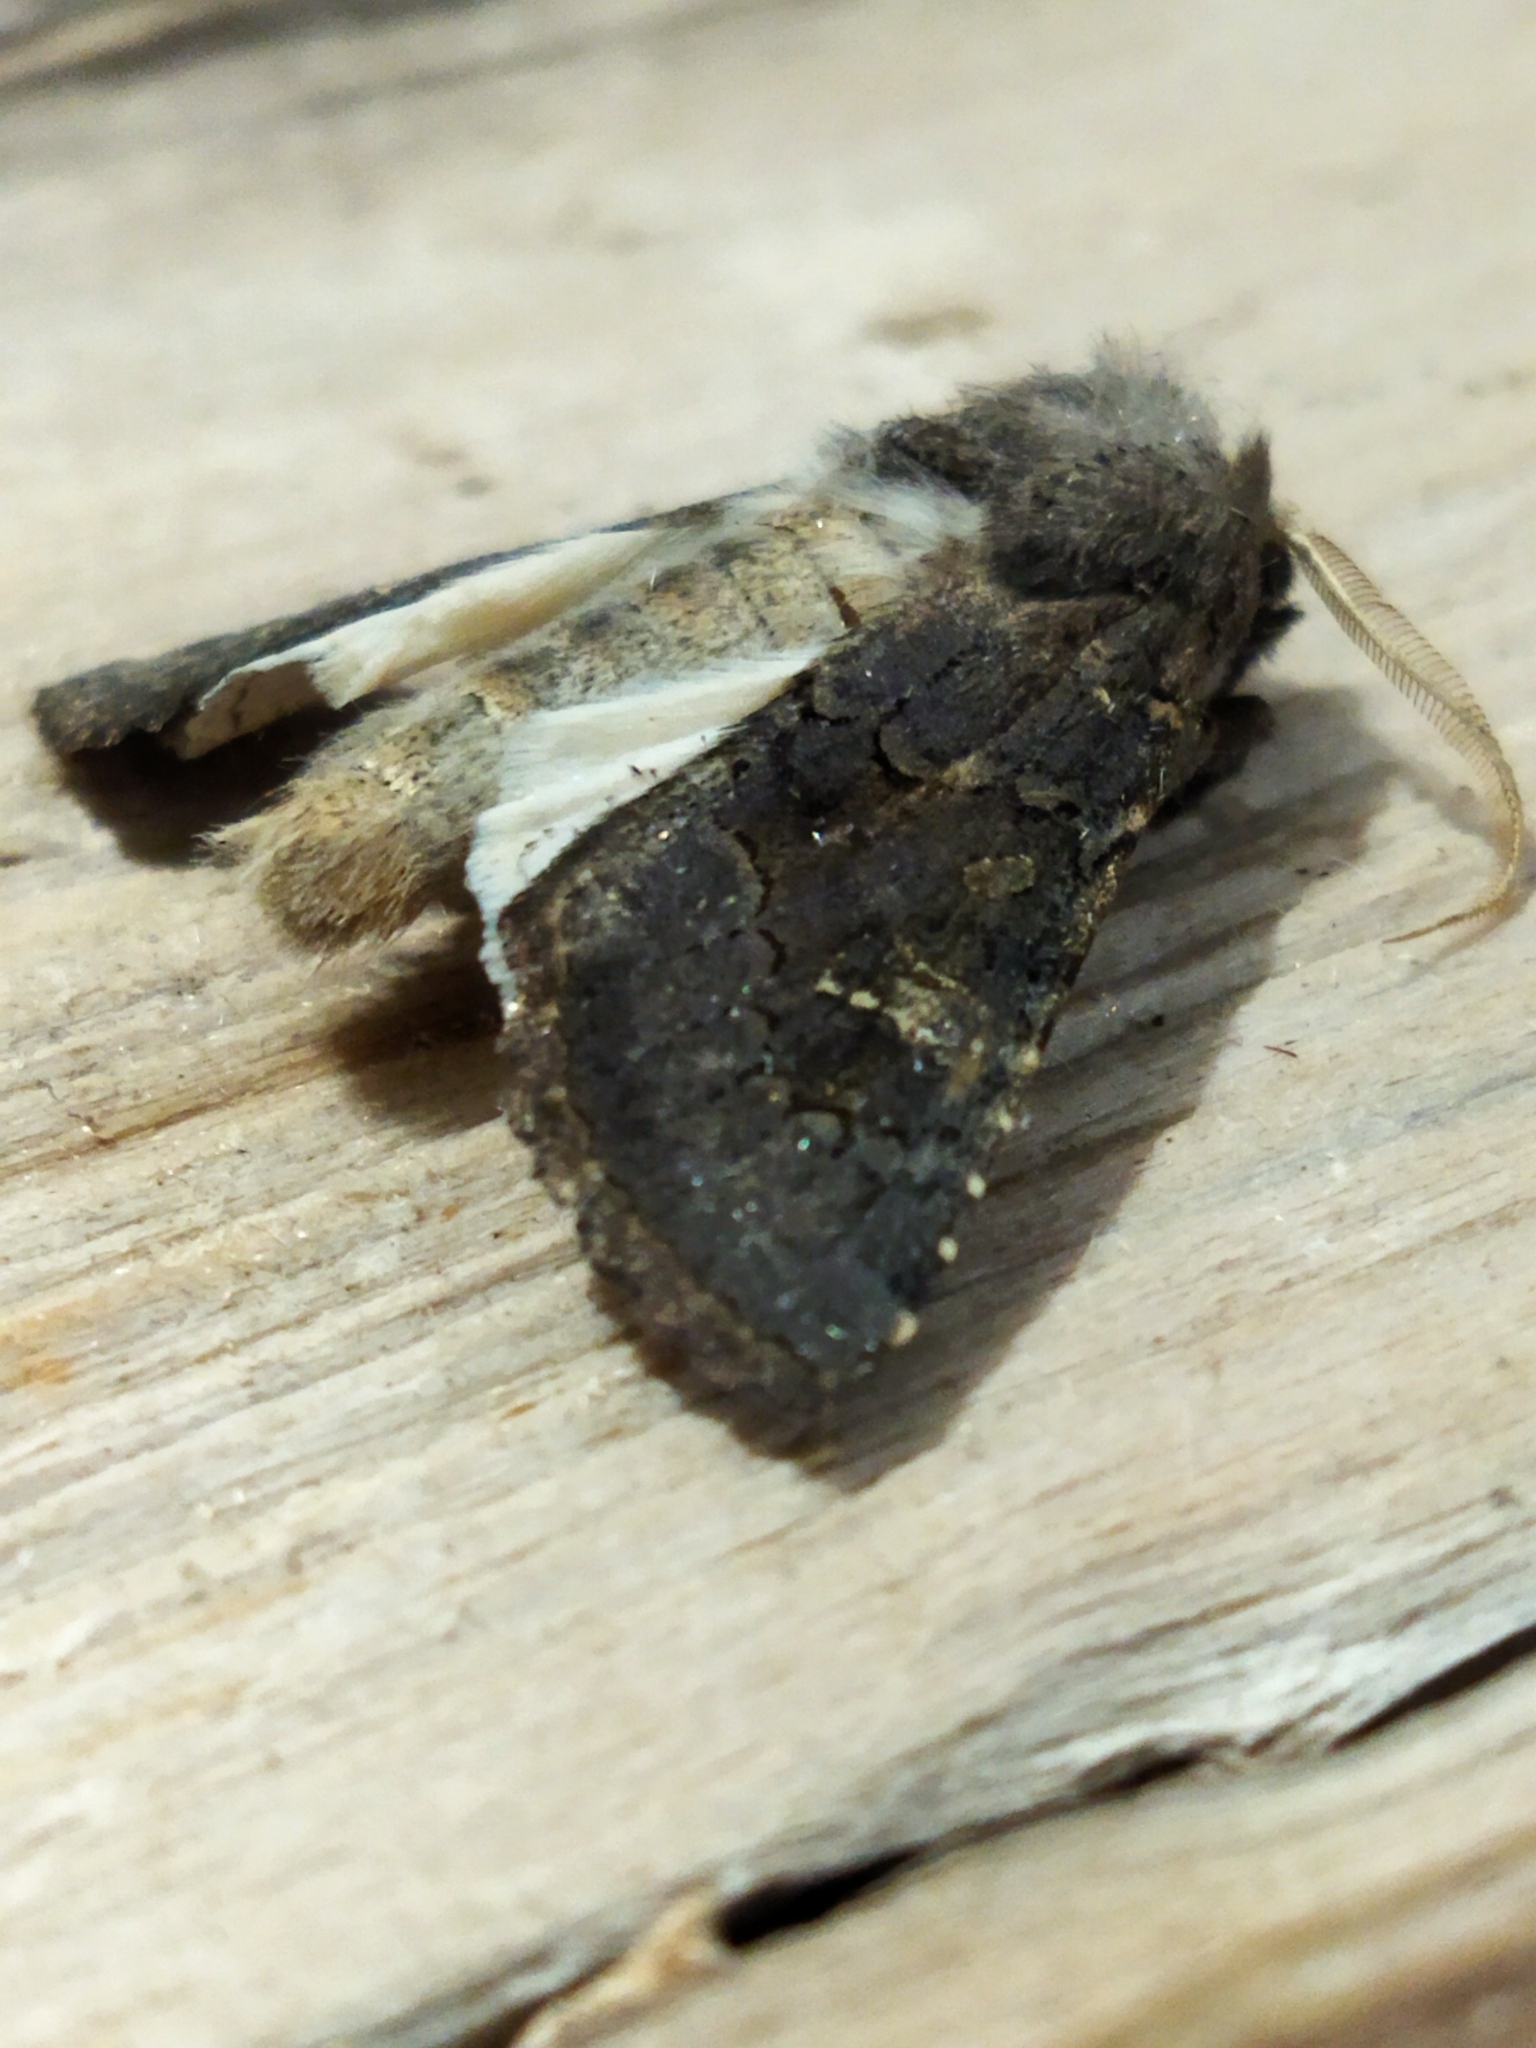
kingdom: Animalia
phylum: Arthropoda
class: Insecta
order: Lepidoptera
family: Noctuidae
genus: Aporophyla
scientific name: Aporophyla lutulenta
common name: Deep-brown dart
